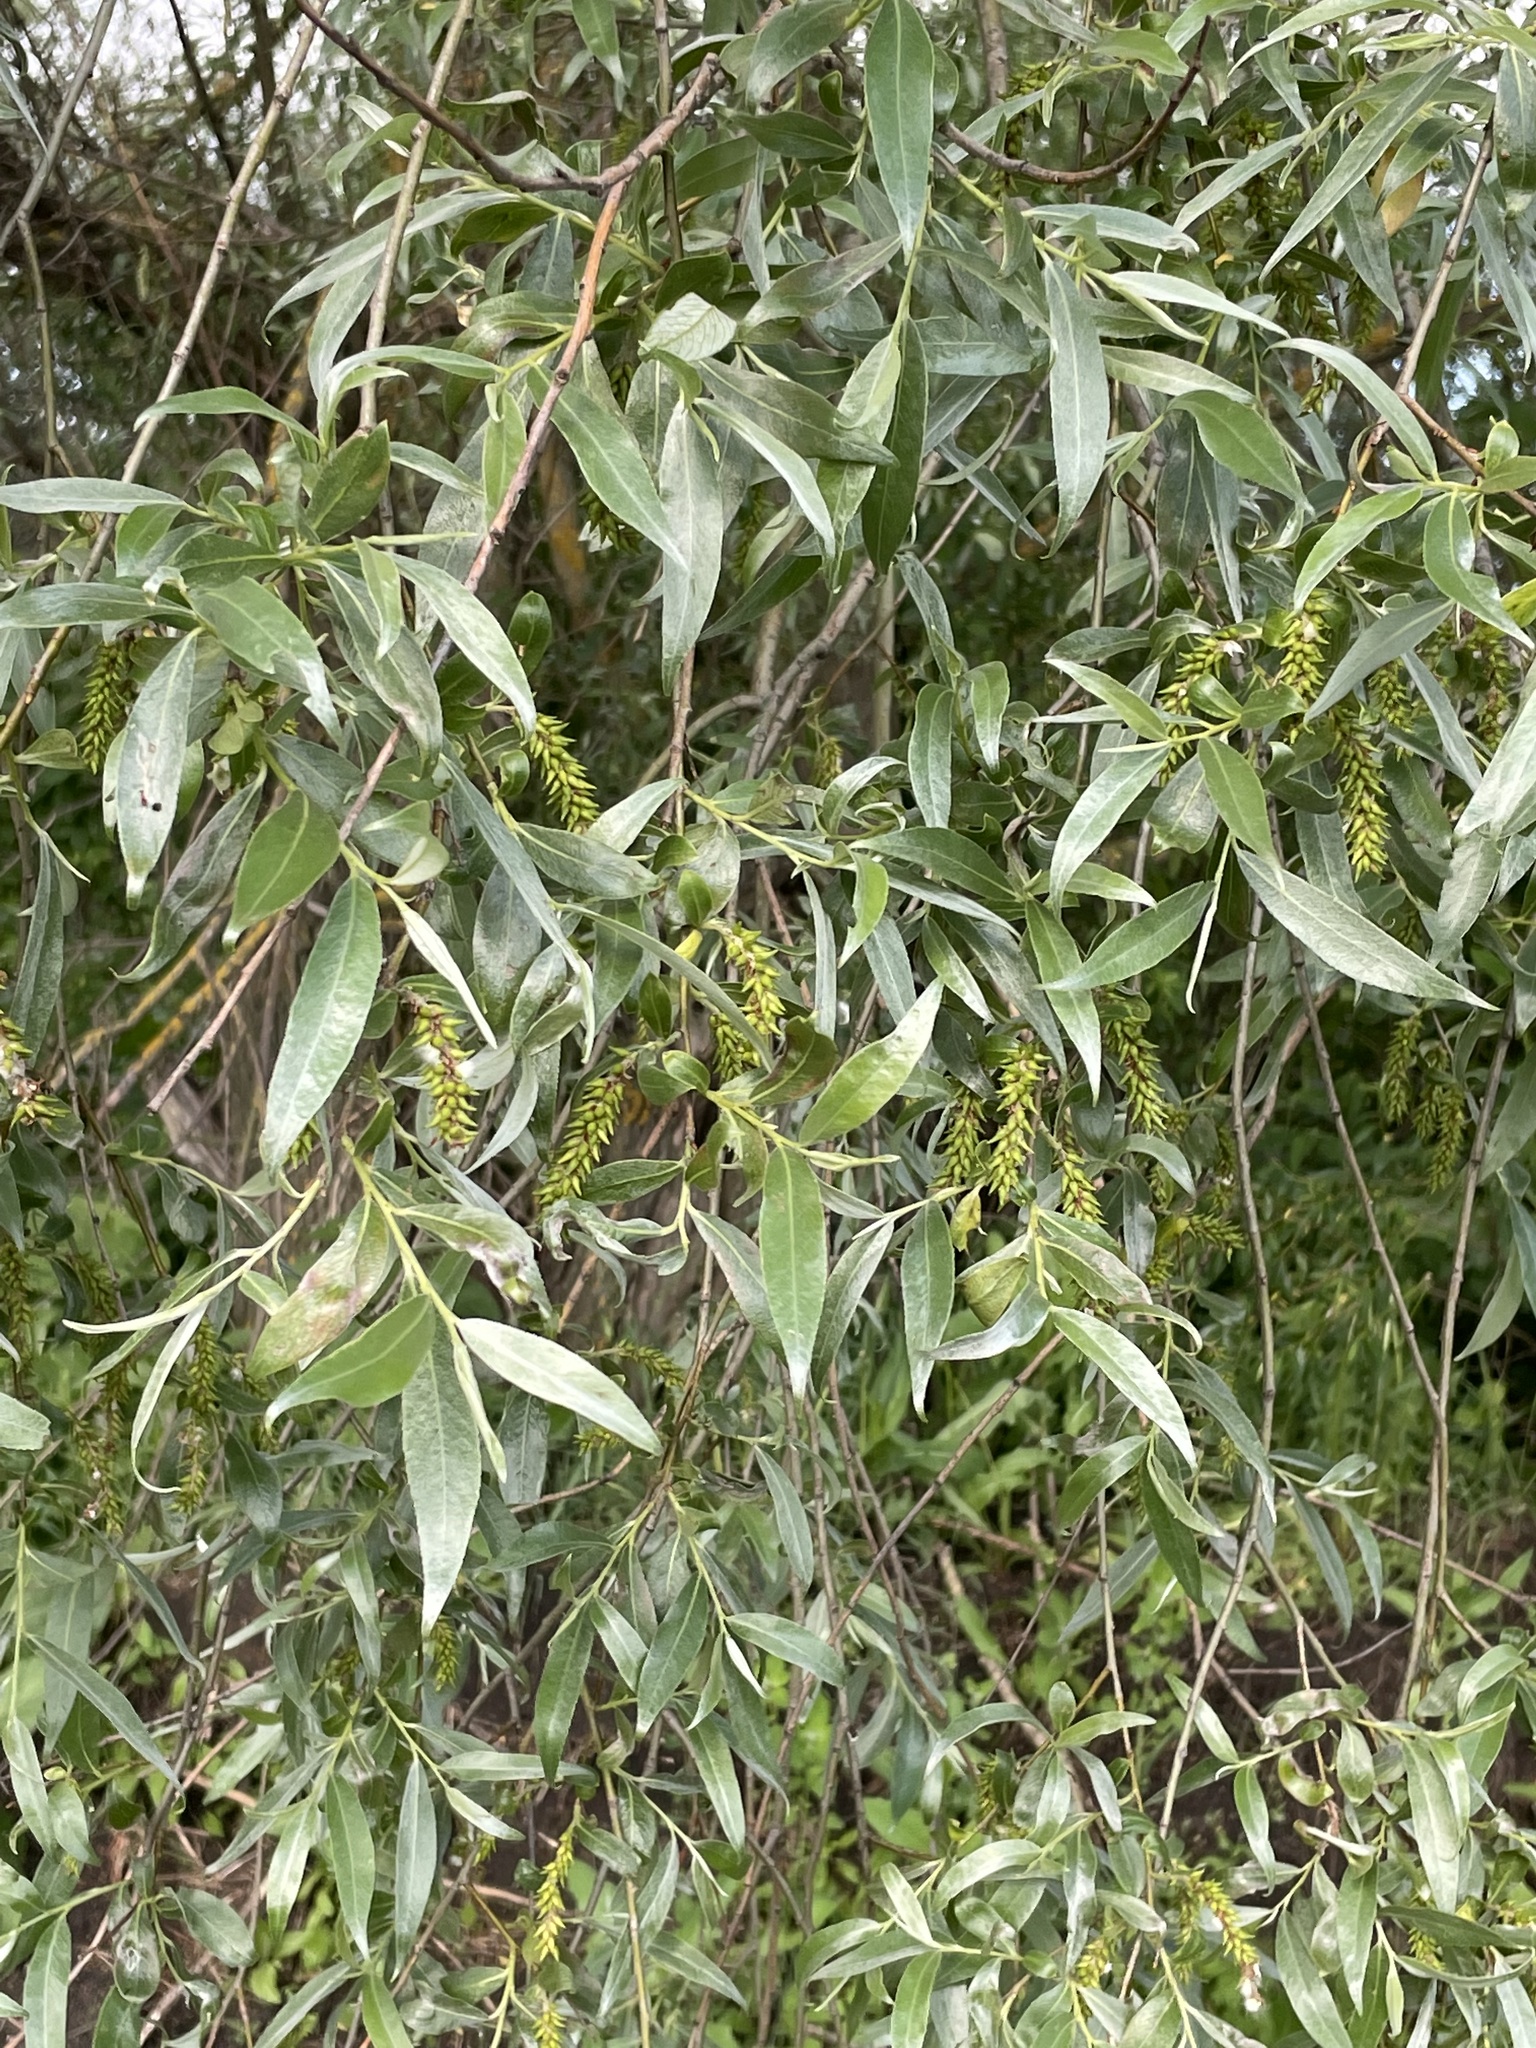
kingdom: Plantae
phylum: Tracheophyta
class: Magnoliopsida
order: Malpighiales
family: Salicaceae
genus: Salix
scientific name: Salix alba
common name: White willow
